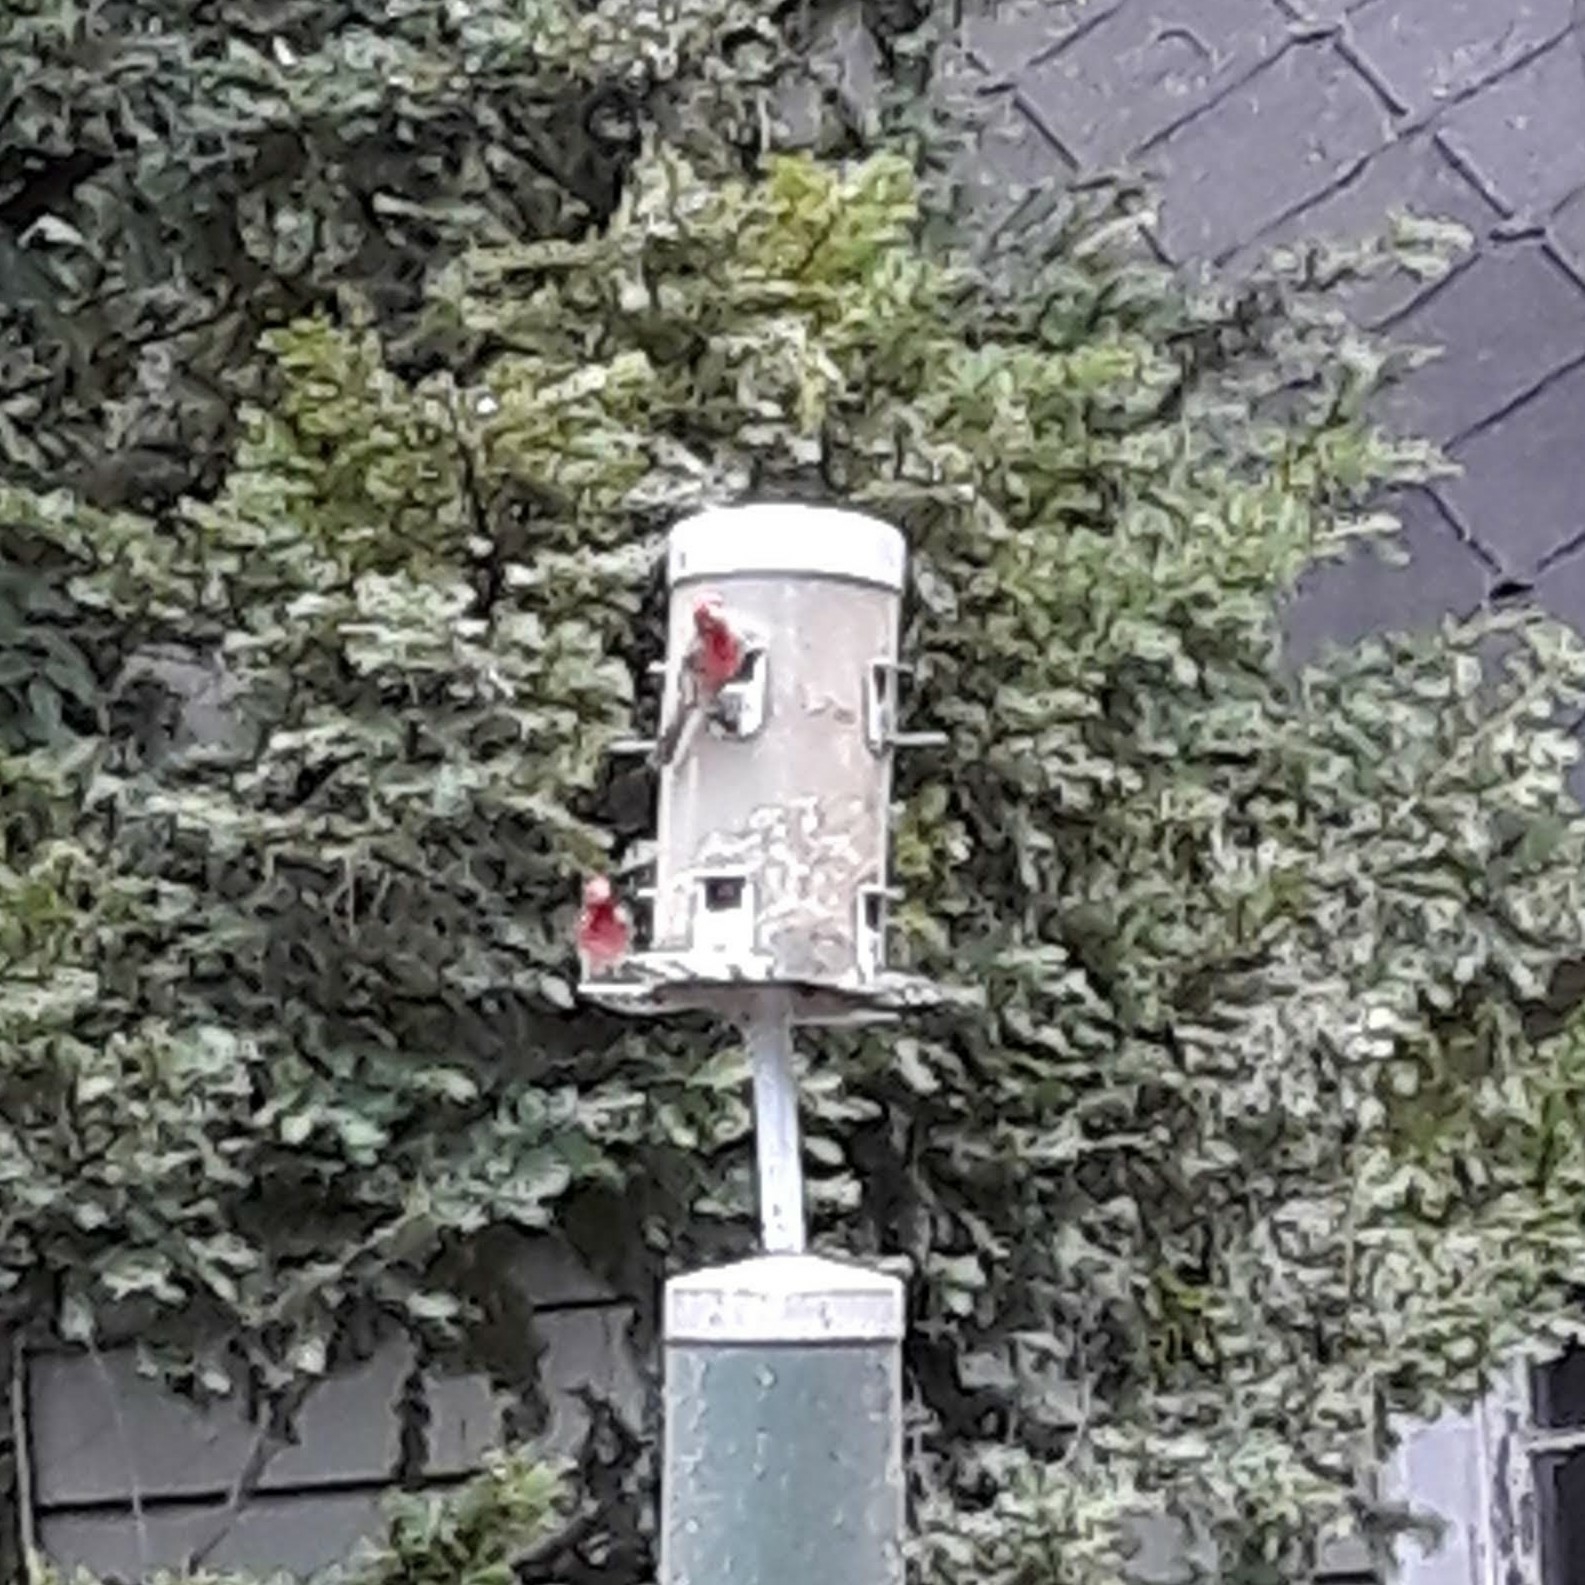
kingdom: Animalia
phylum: Chordata
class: Aves
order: Passeriformes
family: Fringillidae
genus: Haemorhous
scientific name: Haemorhous mexicanus
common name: House finch
